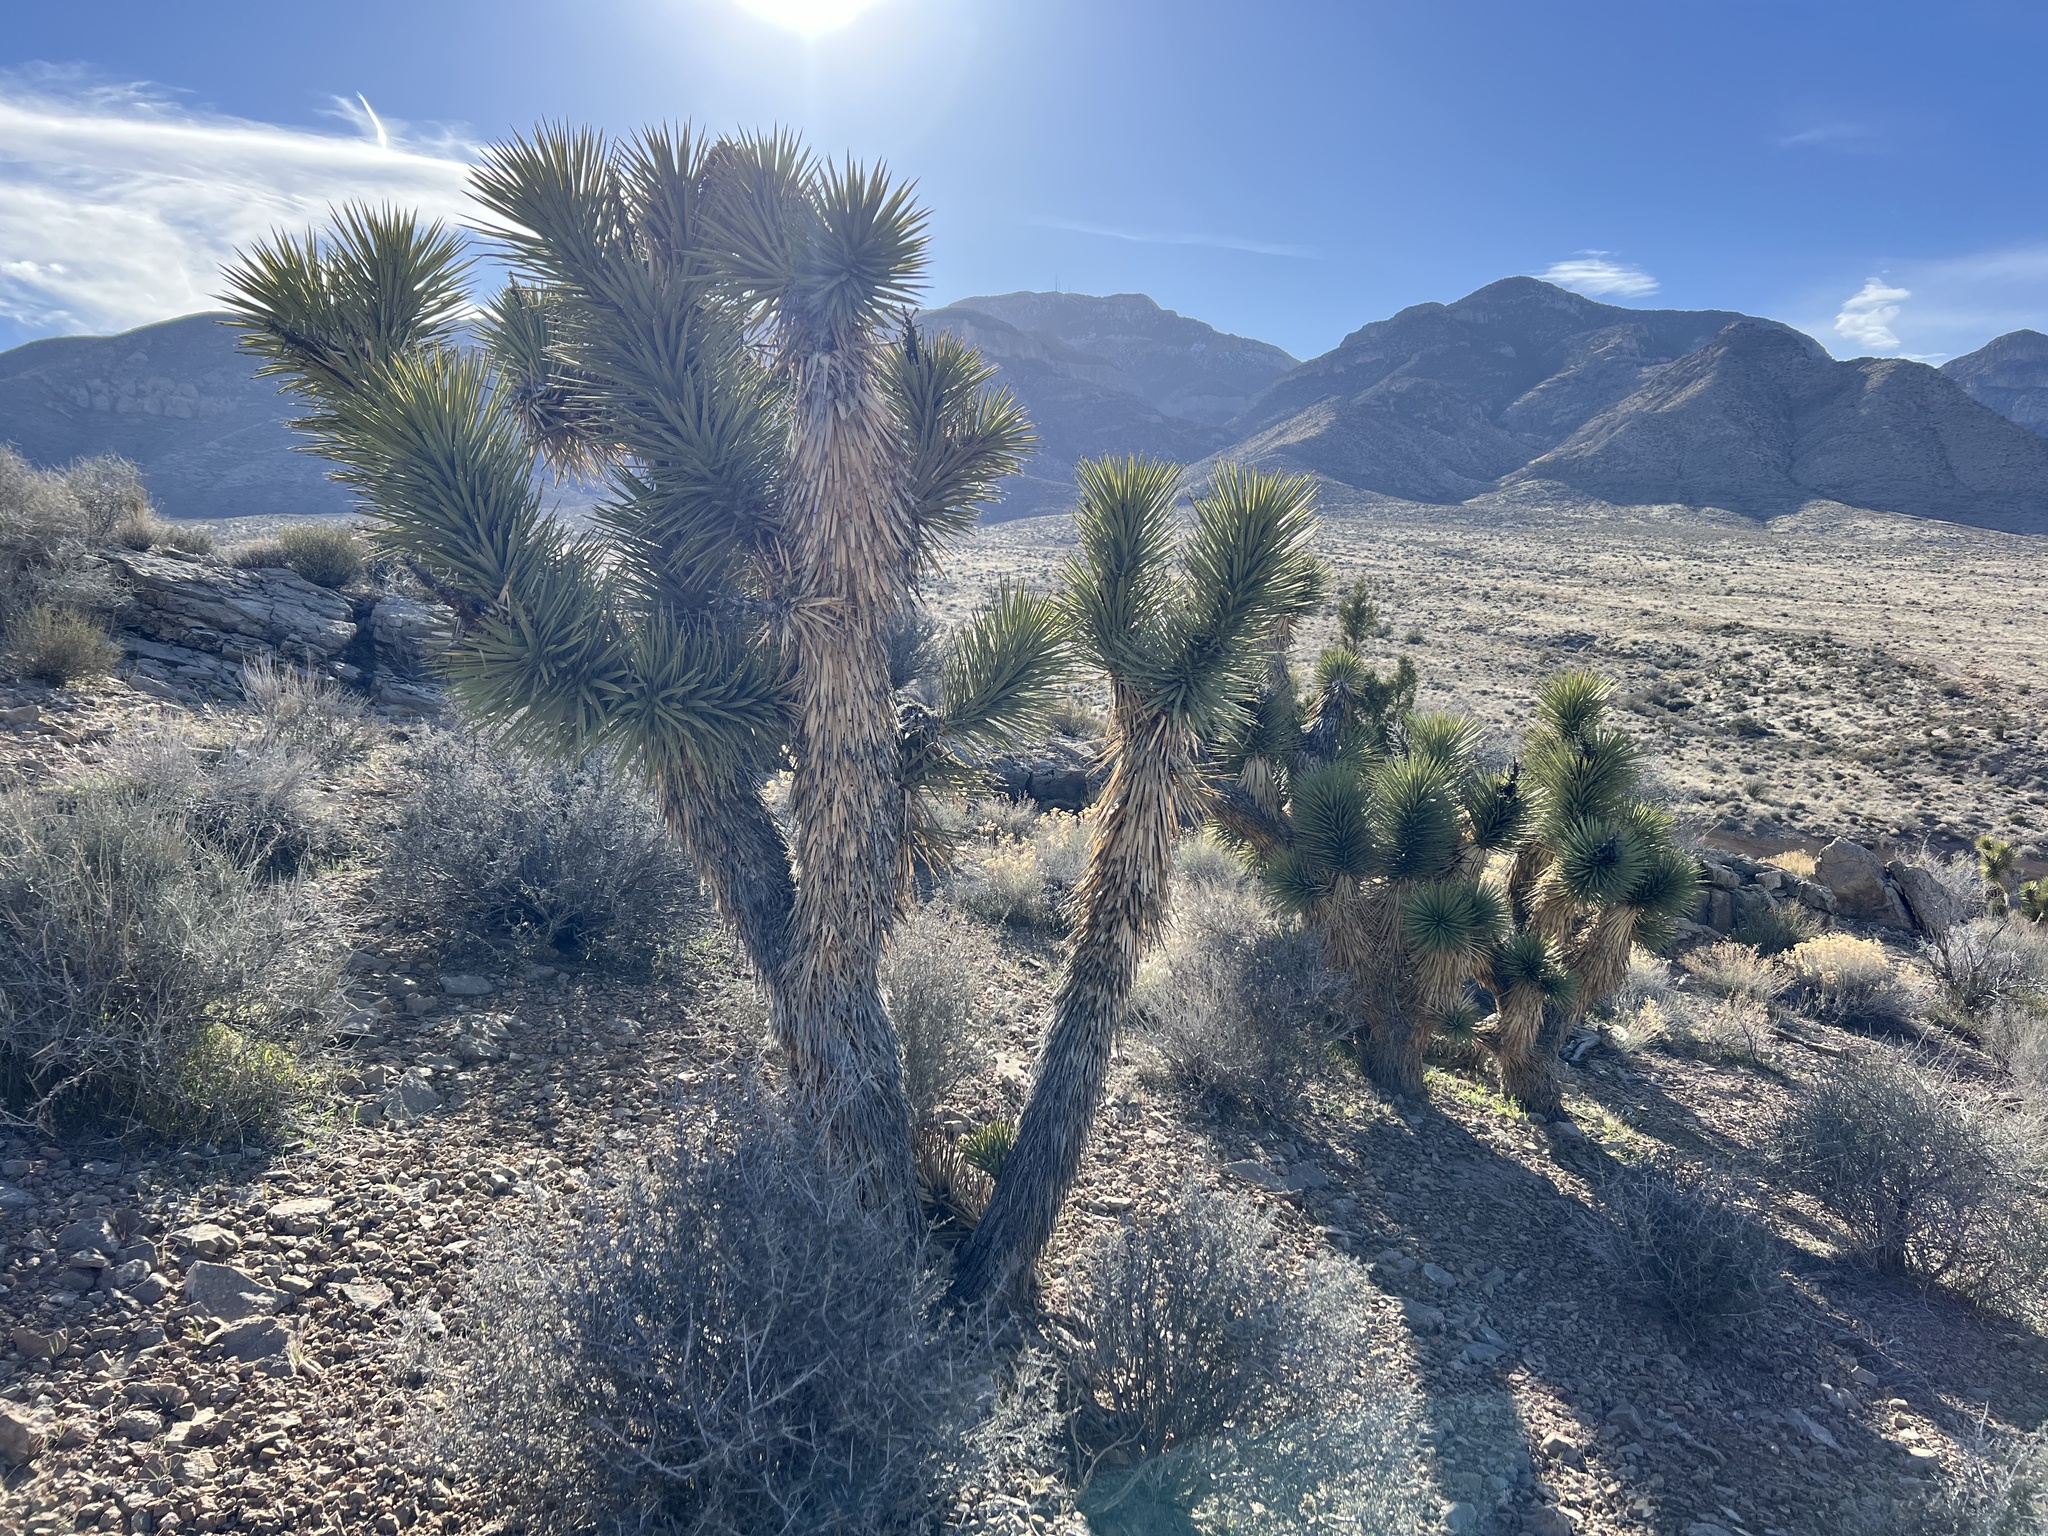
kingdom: Plantae
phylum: Tracheophyta
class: Liliopsida
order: Asparagales
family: Asparagaceae
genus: Yucca
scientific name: Yucca brevifolia
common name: Joshua tree
